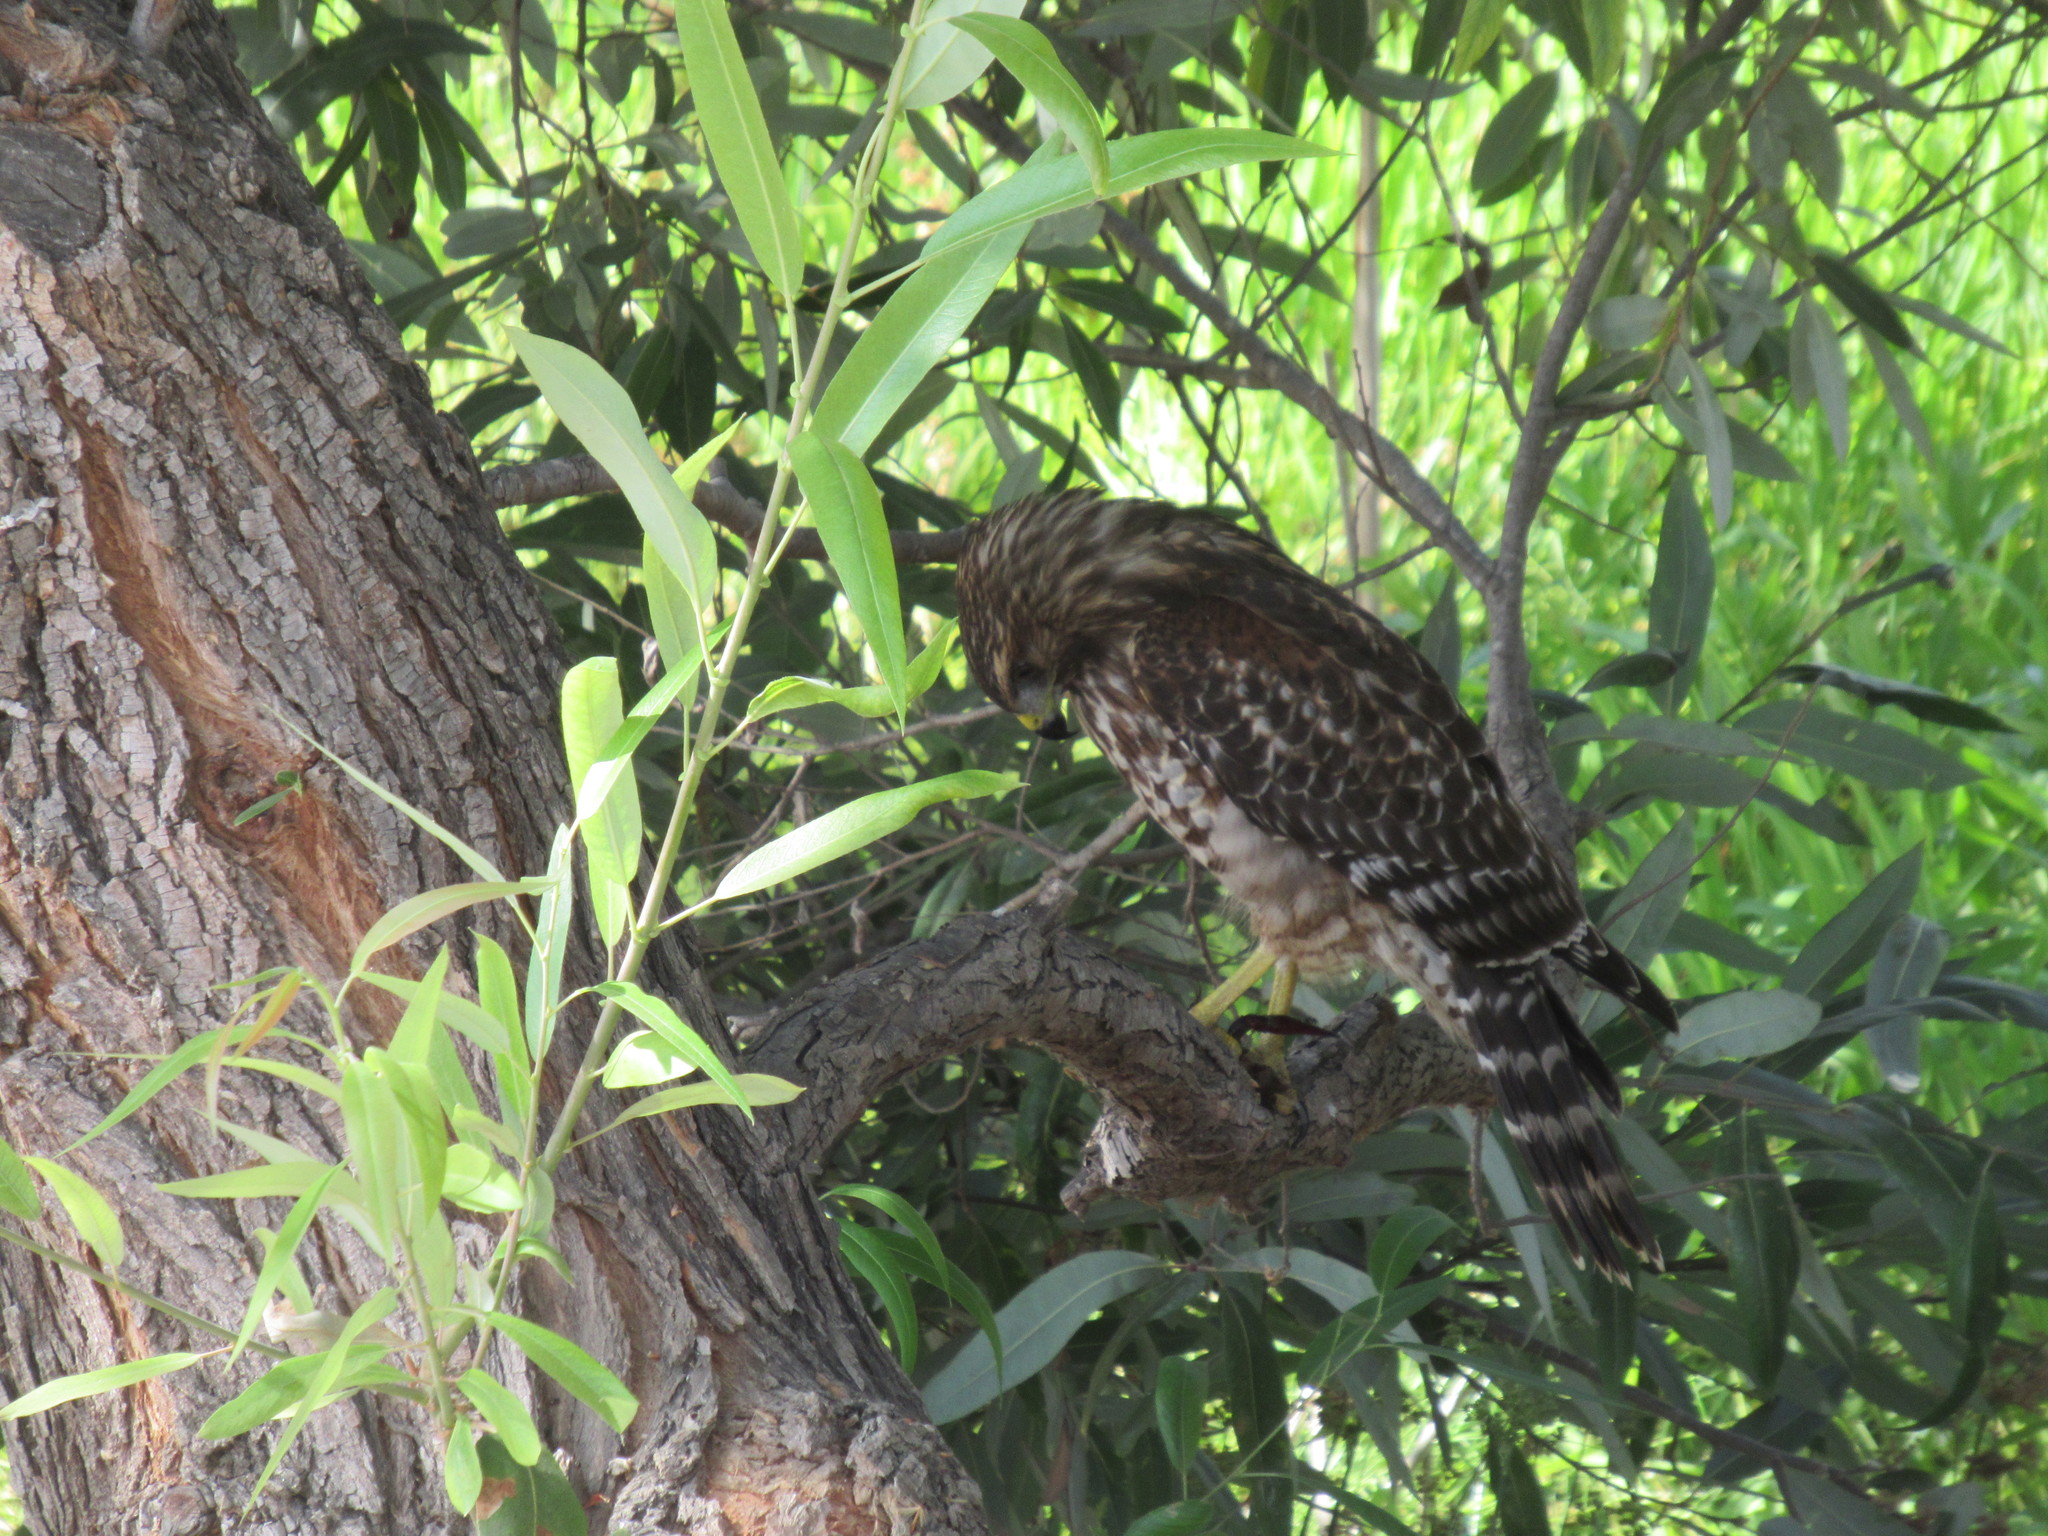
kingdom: Animalia
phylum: Chordata
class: Aves
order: Accipitriformes
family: Accipitridae
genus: Buteo
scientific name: Buteo lineatus
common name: Red-shouldered hawk
